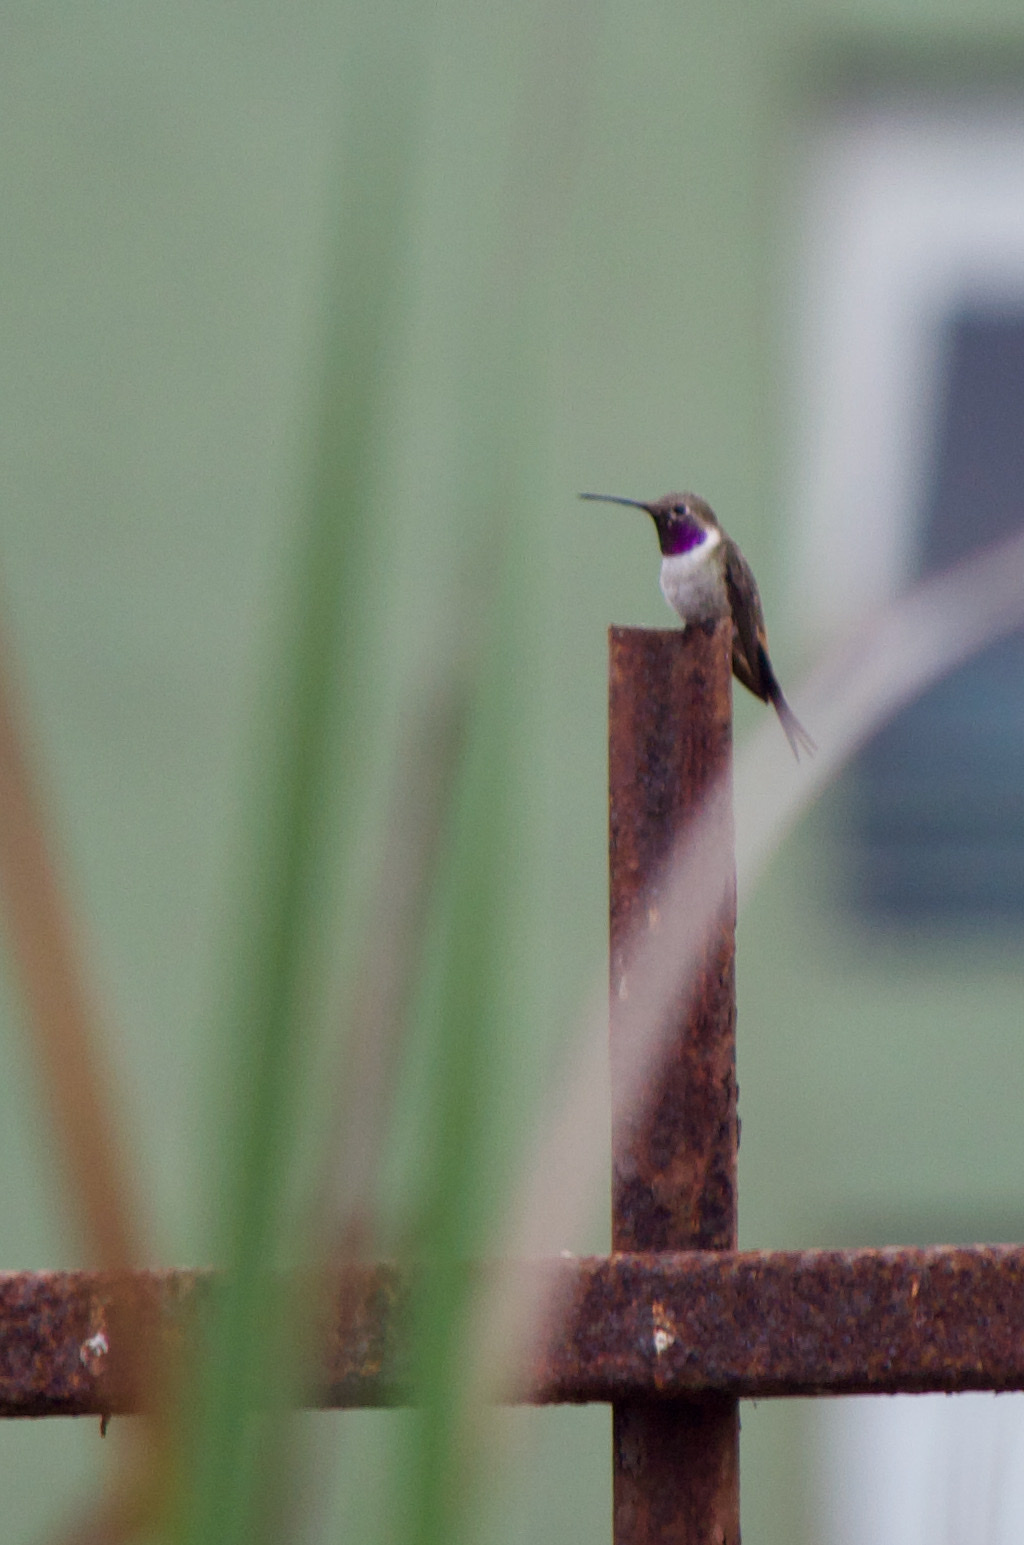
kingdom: Animalia
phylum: Chordata
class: Aves
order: Apodiformes
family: Trochilidae
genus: Rhodopis
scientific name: Rhodopis vesper
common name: Oasis hummingbird
